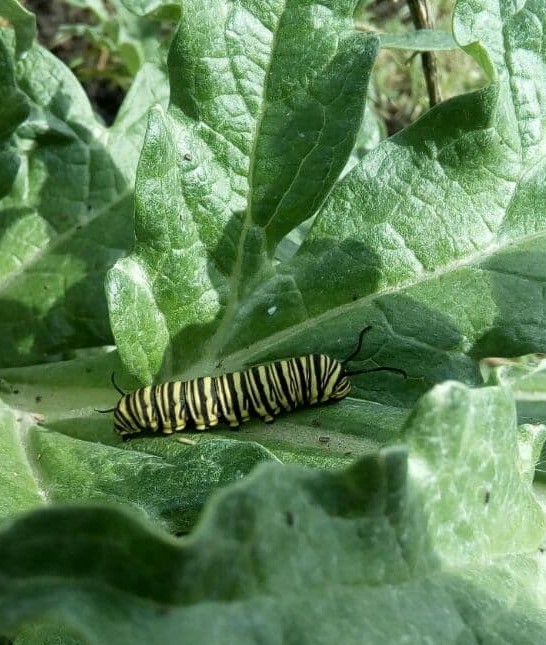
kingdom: Animalia
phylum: Arthropoda
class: Insecta
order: Lepidoptera
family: Nymphalidae
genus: Danaus
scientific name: Danaus erippus
